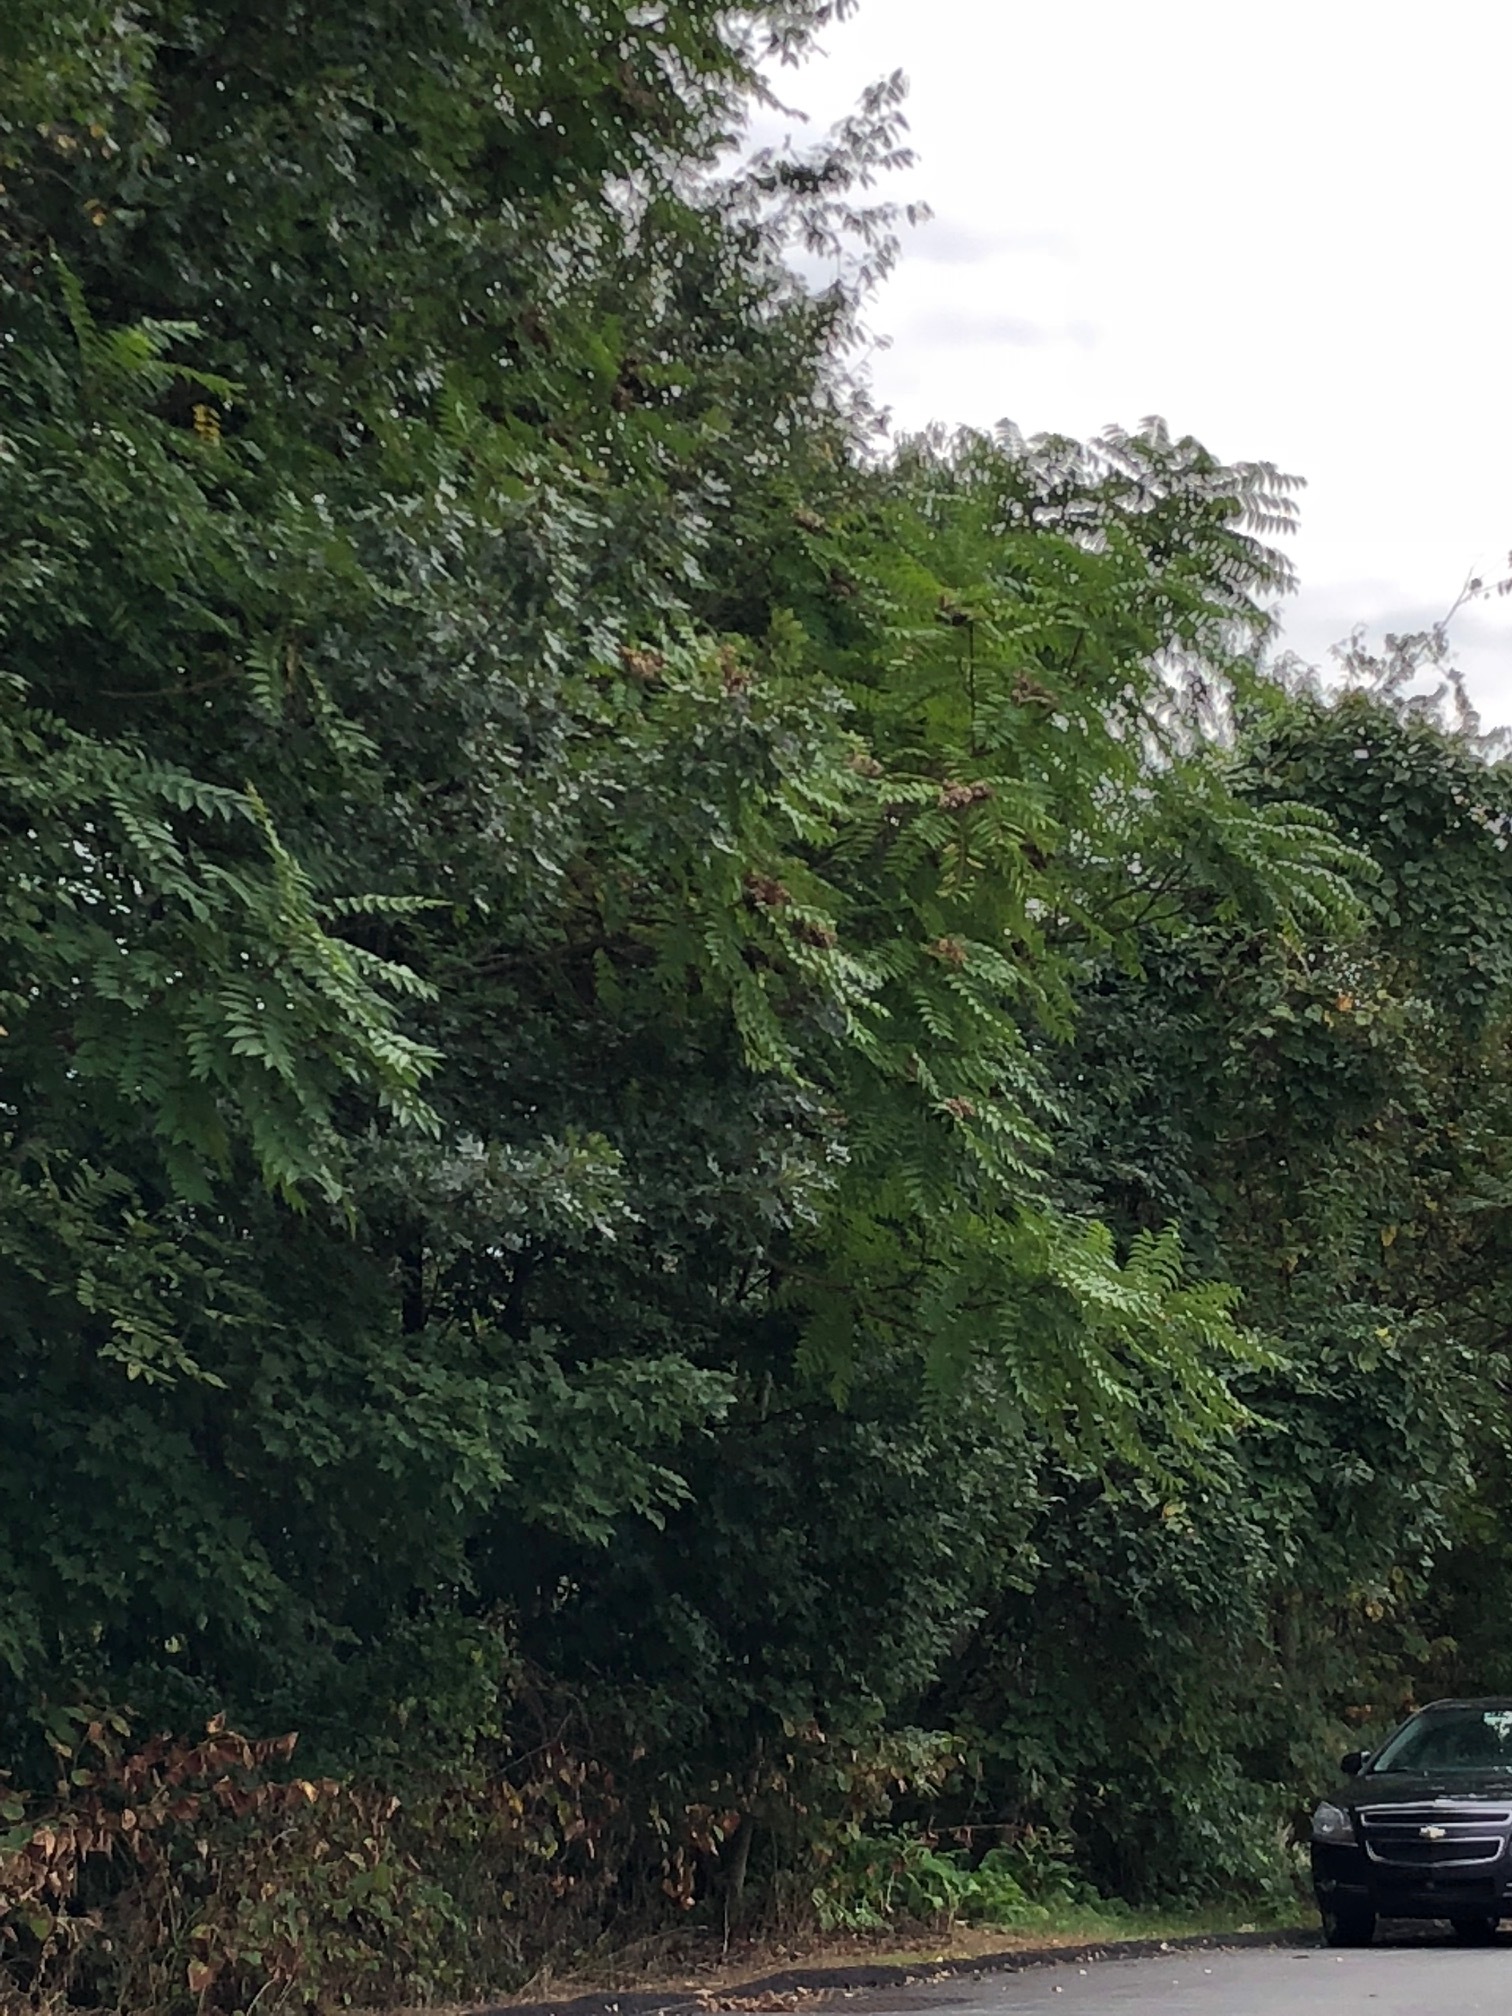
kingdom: Plantae
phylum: Tracheophyta
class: Magnoliopsida
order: Sapindales
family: Simaroubaceae
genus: Ailanthus
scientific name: Ailanthus altissima
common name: Tree-of-heaven
